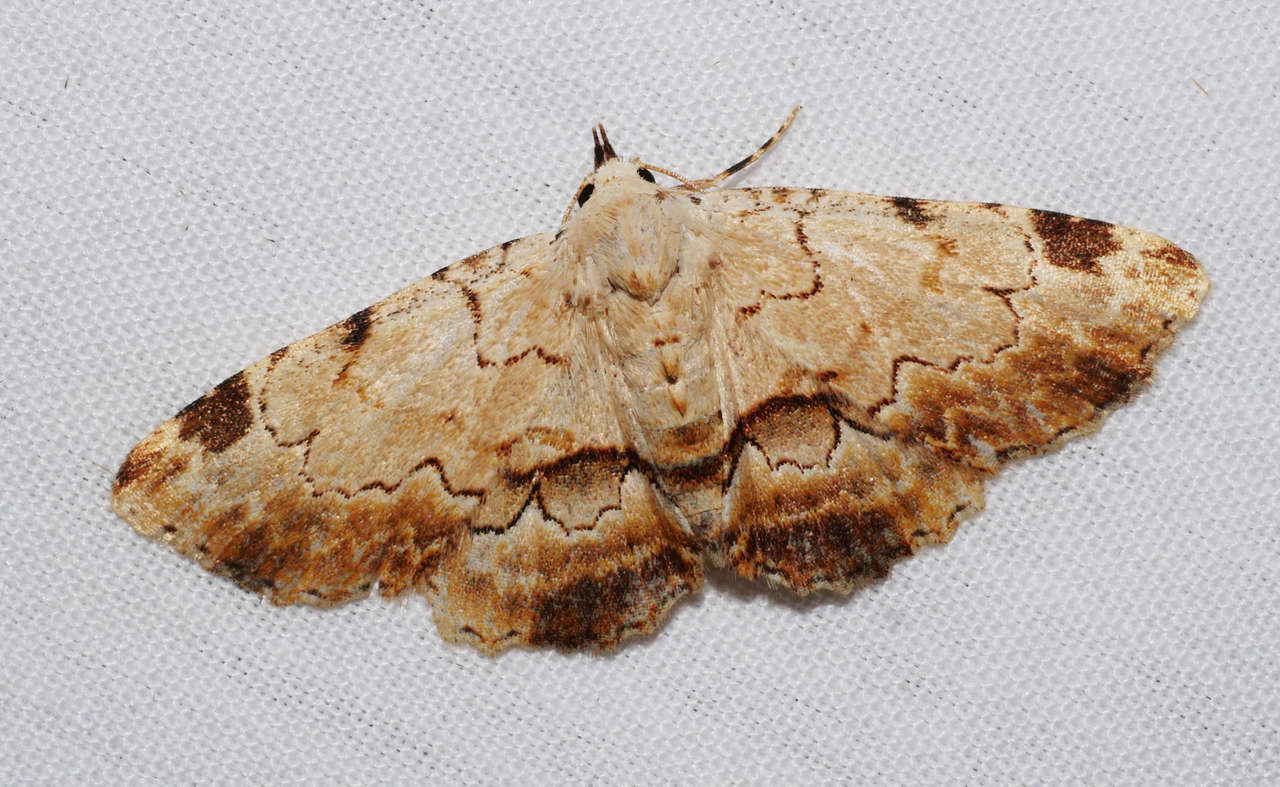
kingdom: Animalia
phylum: Arthropoda
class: Insecta
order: Lepidoptera
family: Erebidae
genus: Sandava
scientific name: Sandava xylistis
